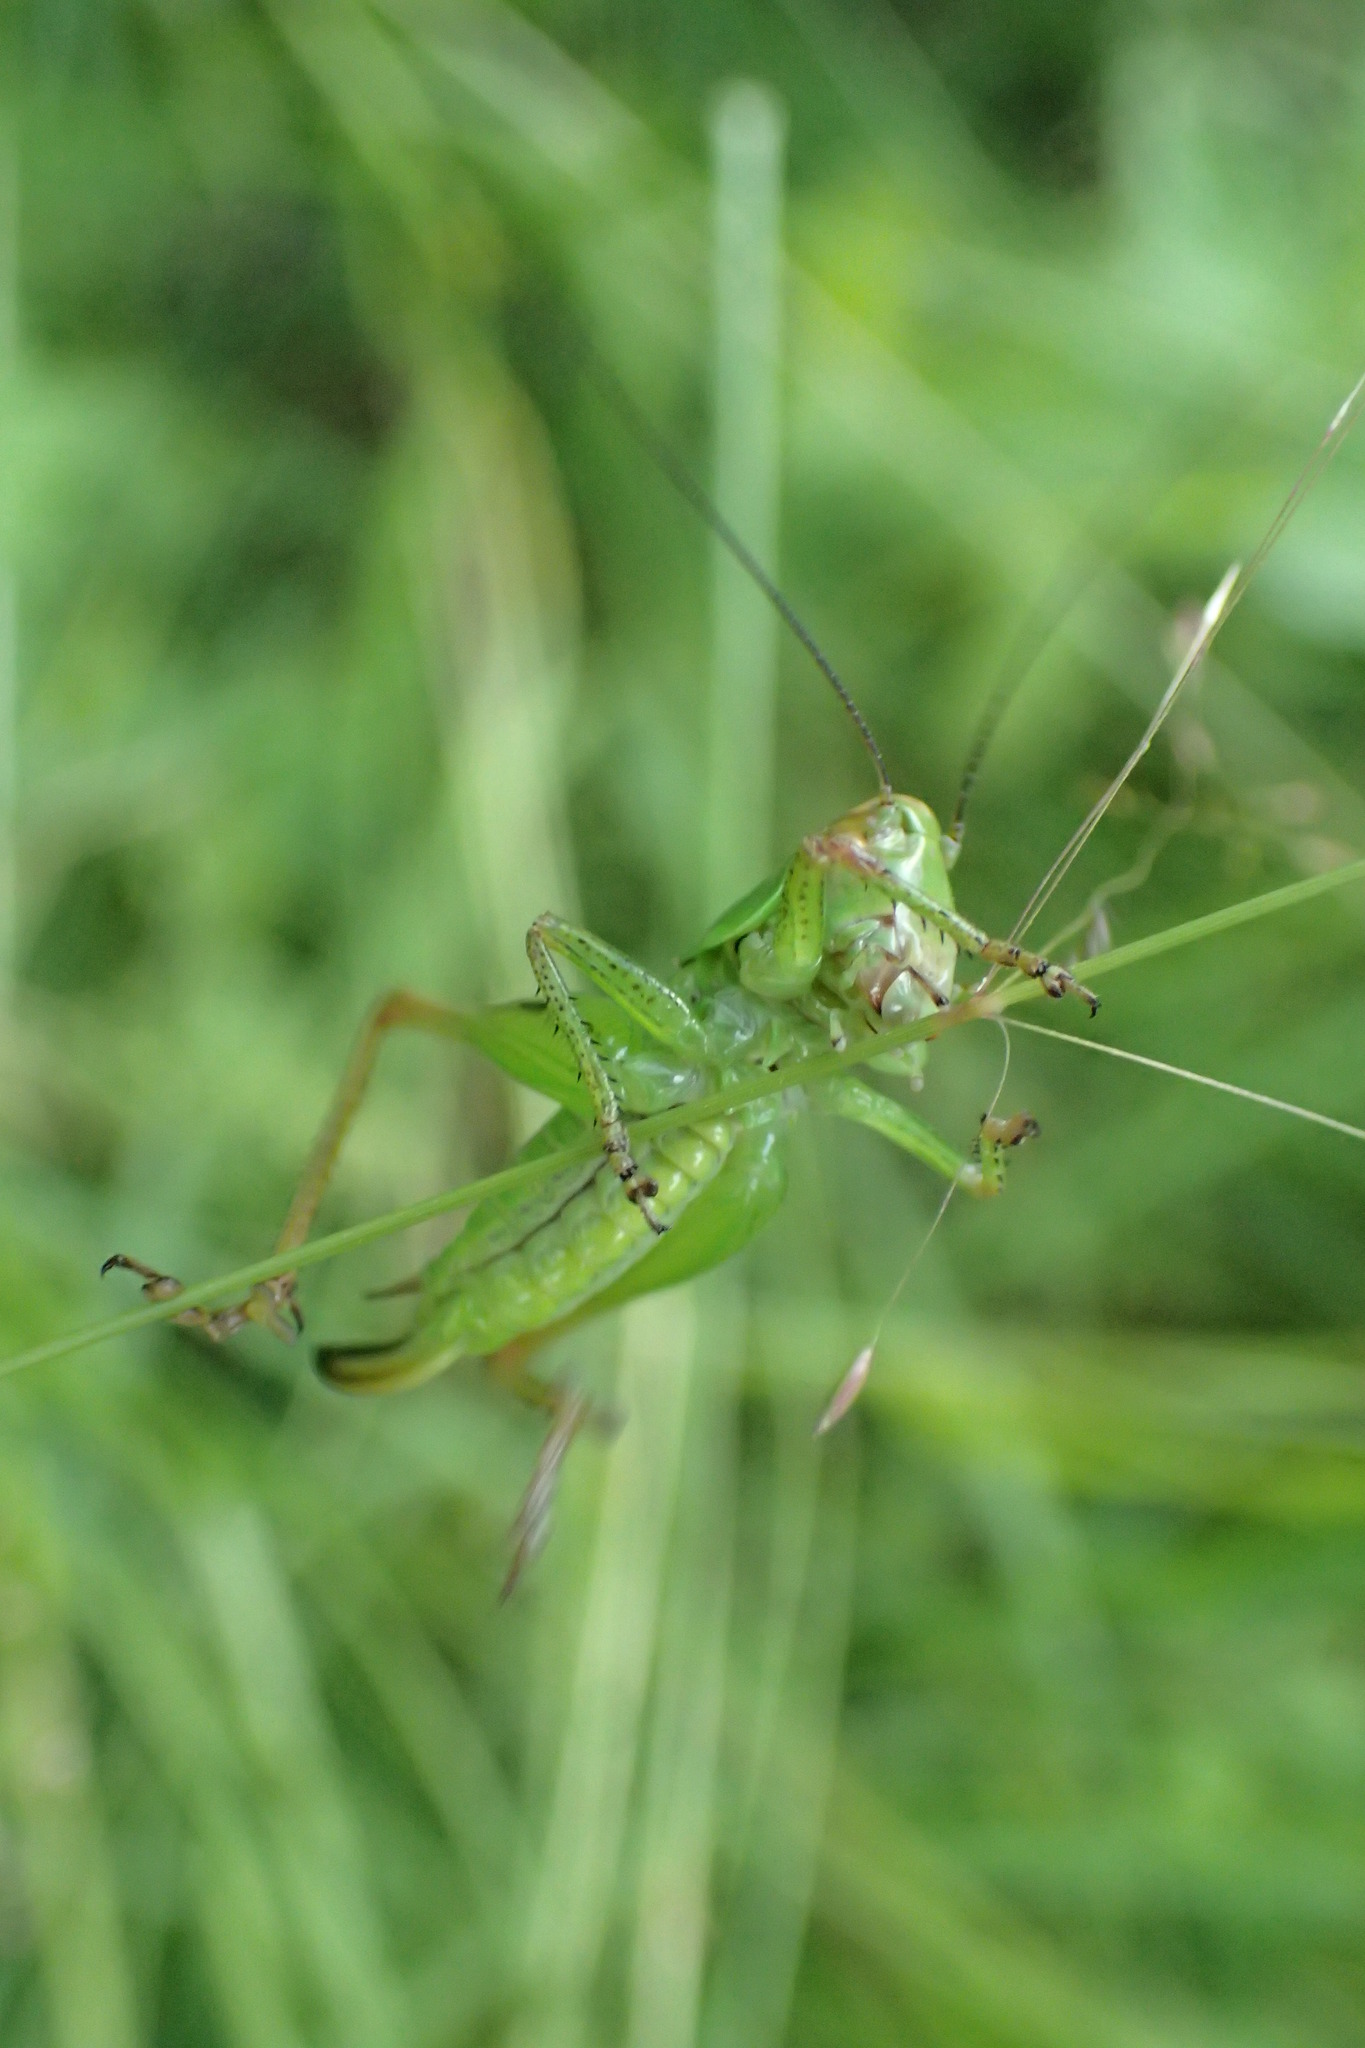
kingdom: Animalia
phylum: Arthropoda
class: Insecta
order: Orthoptera
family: Tettigoniidae
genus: Bicolorana
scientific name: Bicolorana bicolor
